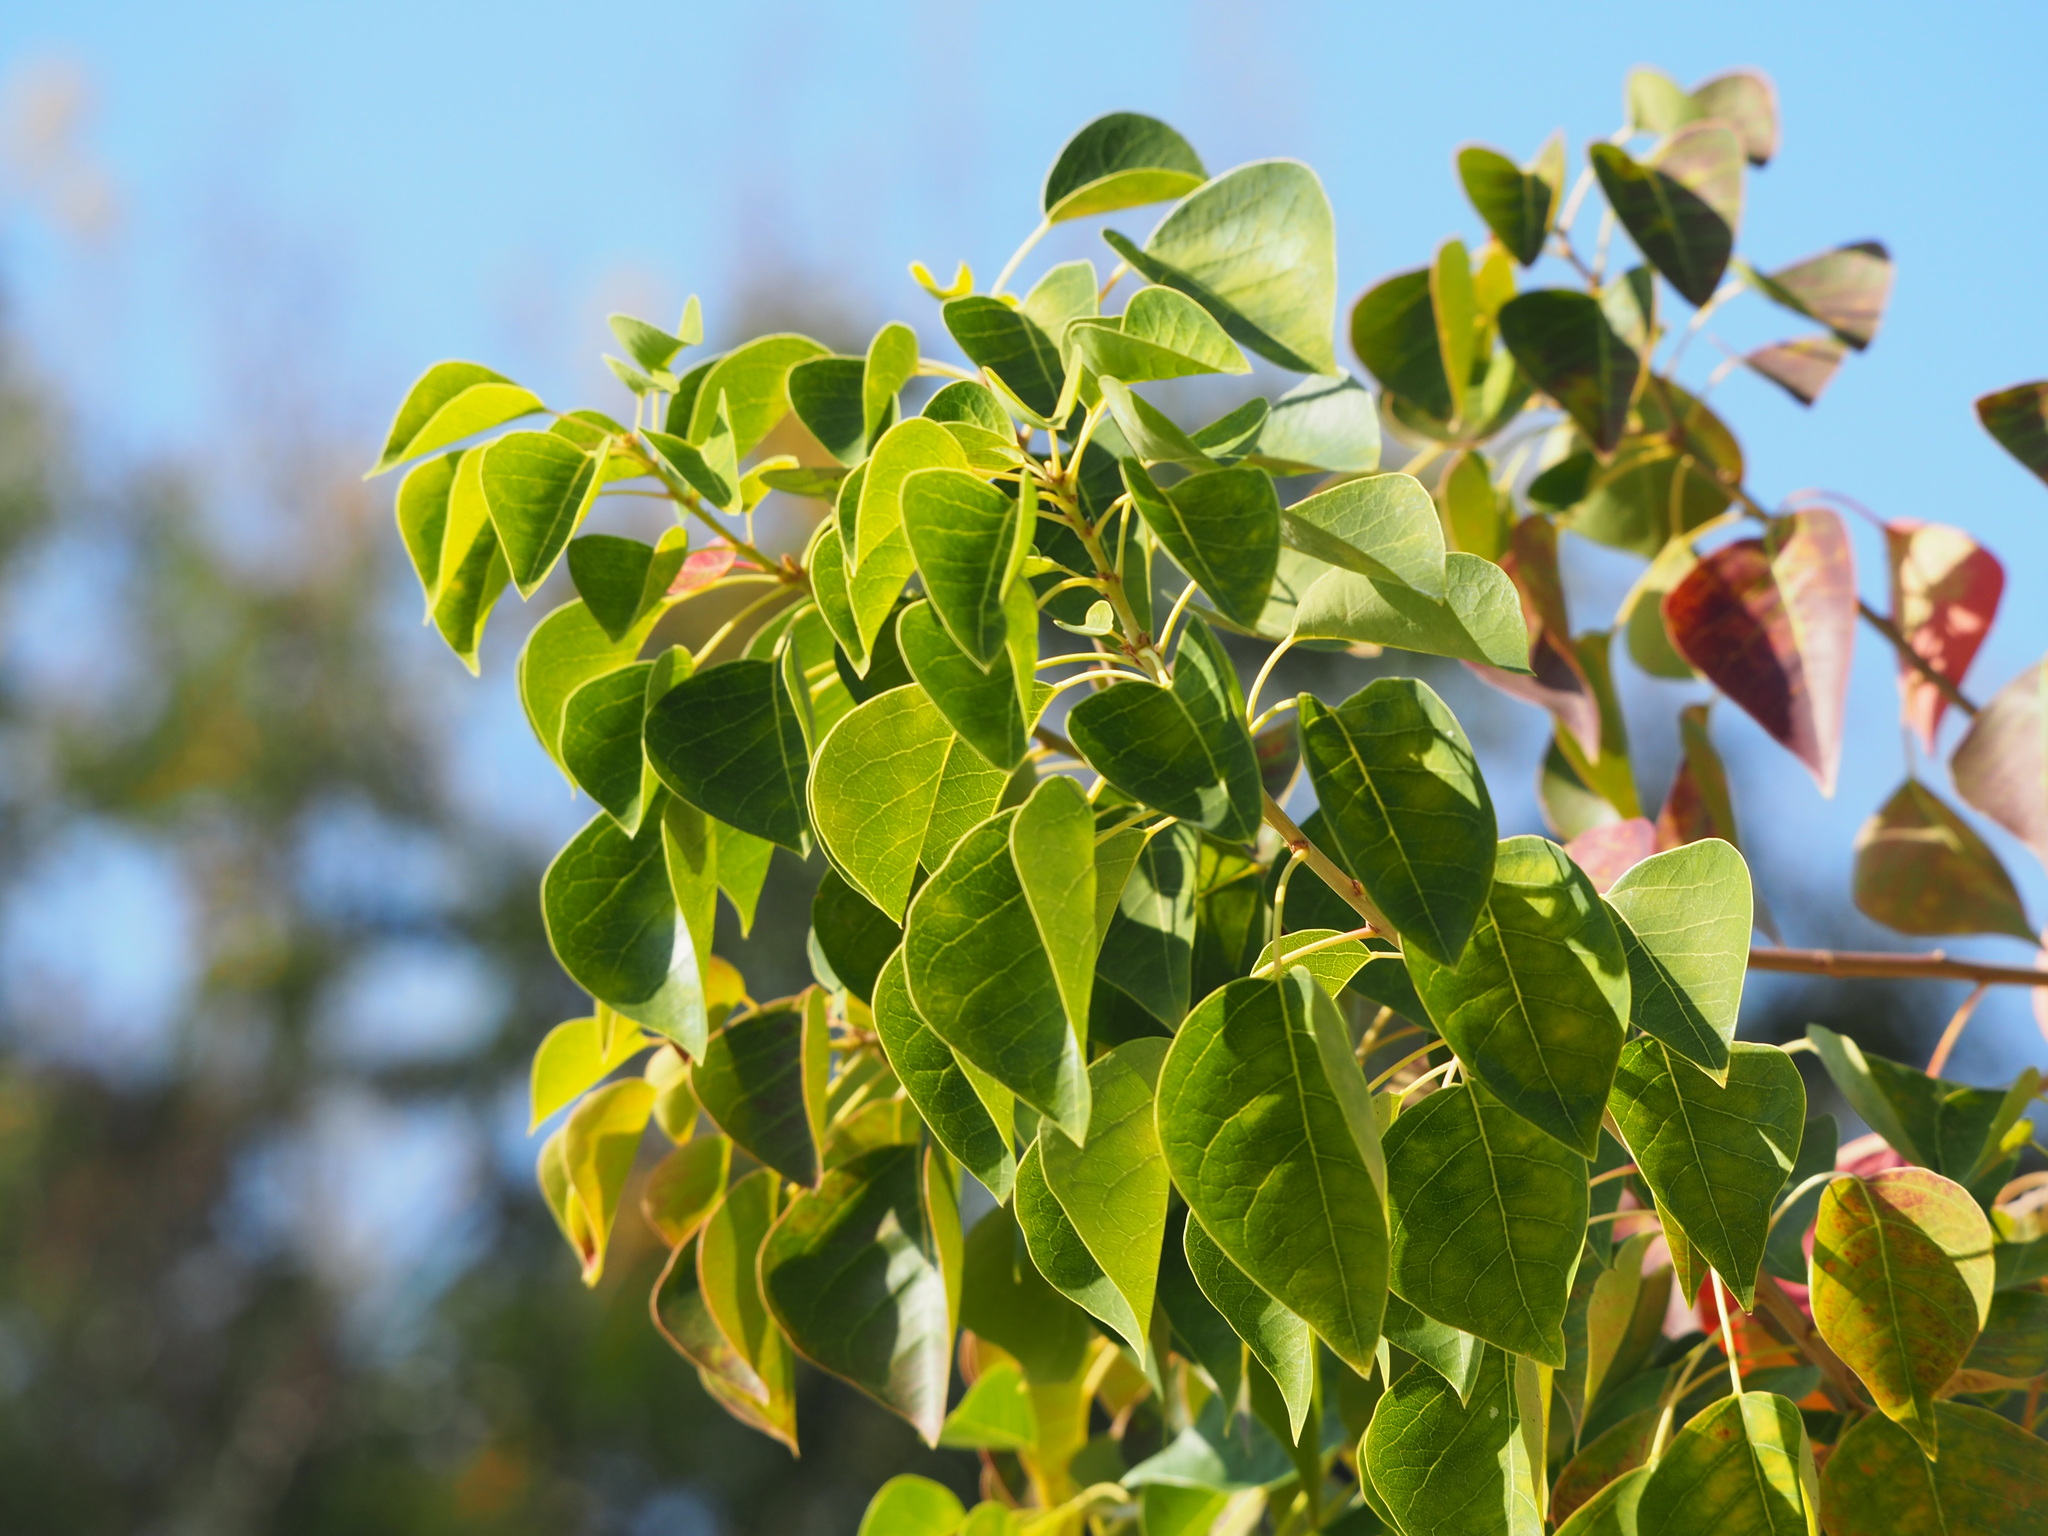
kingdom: Plantae
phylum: Tracheophyta
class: Magnoliopsida
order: Malpighiales
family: Euphorbiaceae
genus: Triadica
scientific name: Triadica sebifera
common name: Chinese tallow
